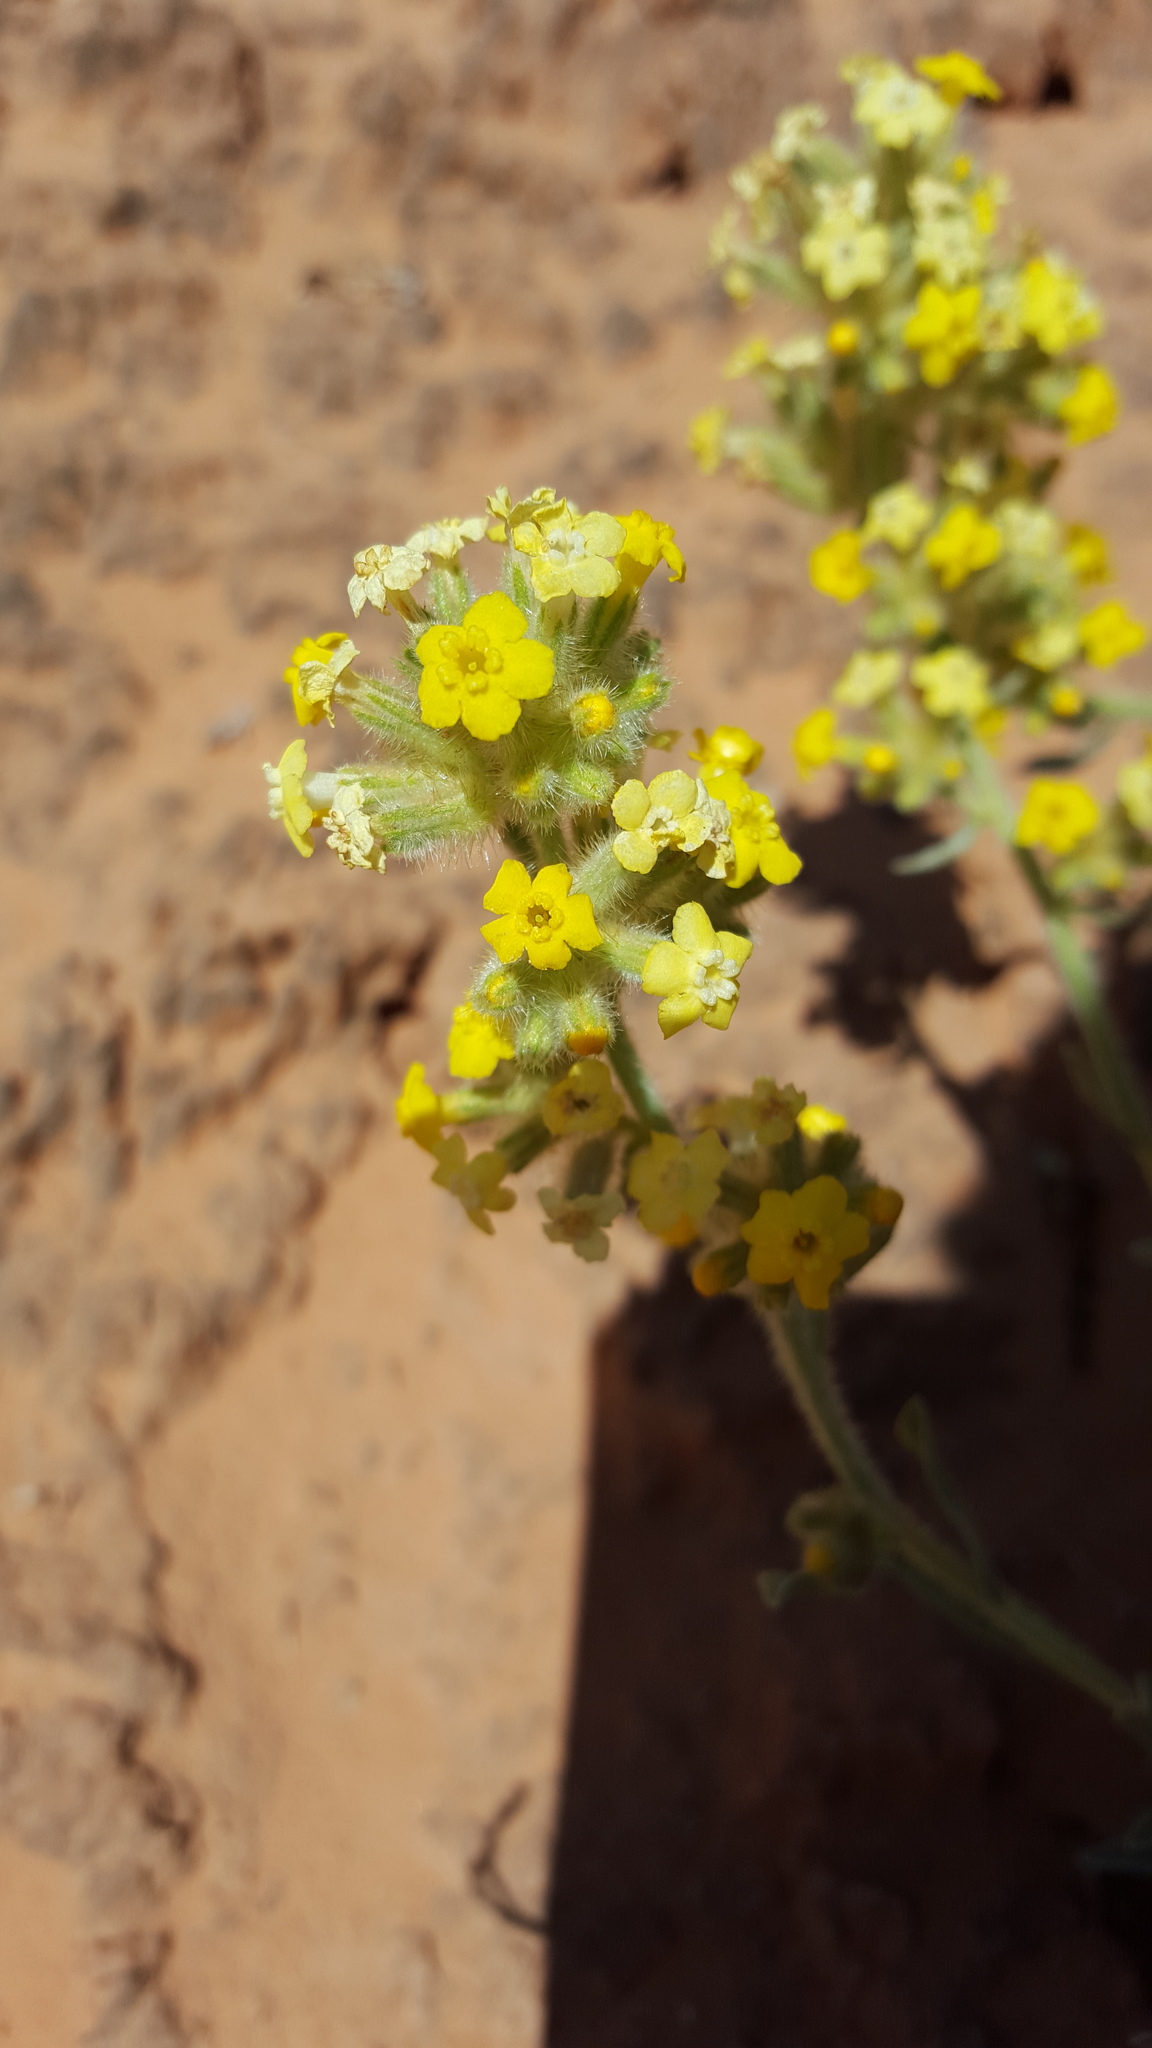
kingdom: Plantae
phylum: Tracheophyta
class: Magnoliopsida
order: Boraginales
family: Boraginaceae
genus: Oreocarya
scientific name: Oreocarya flava
